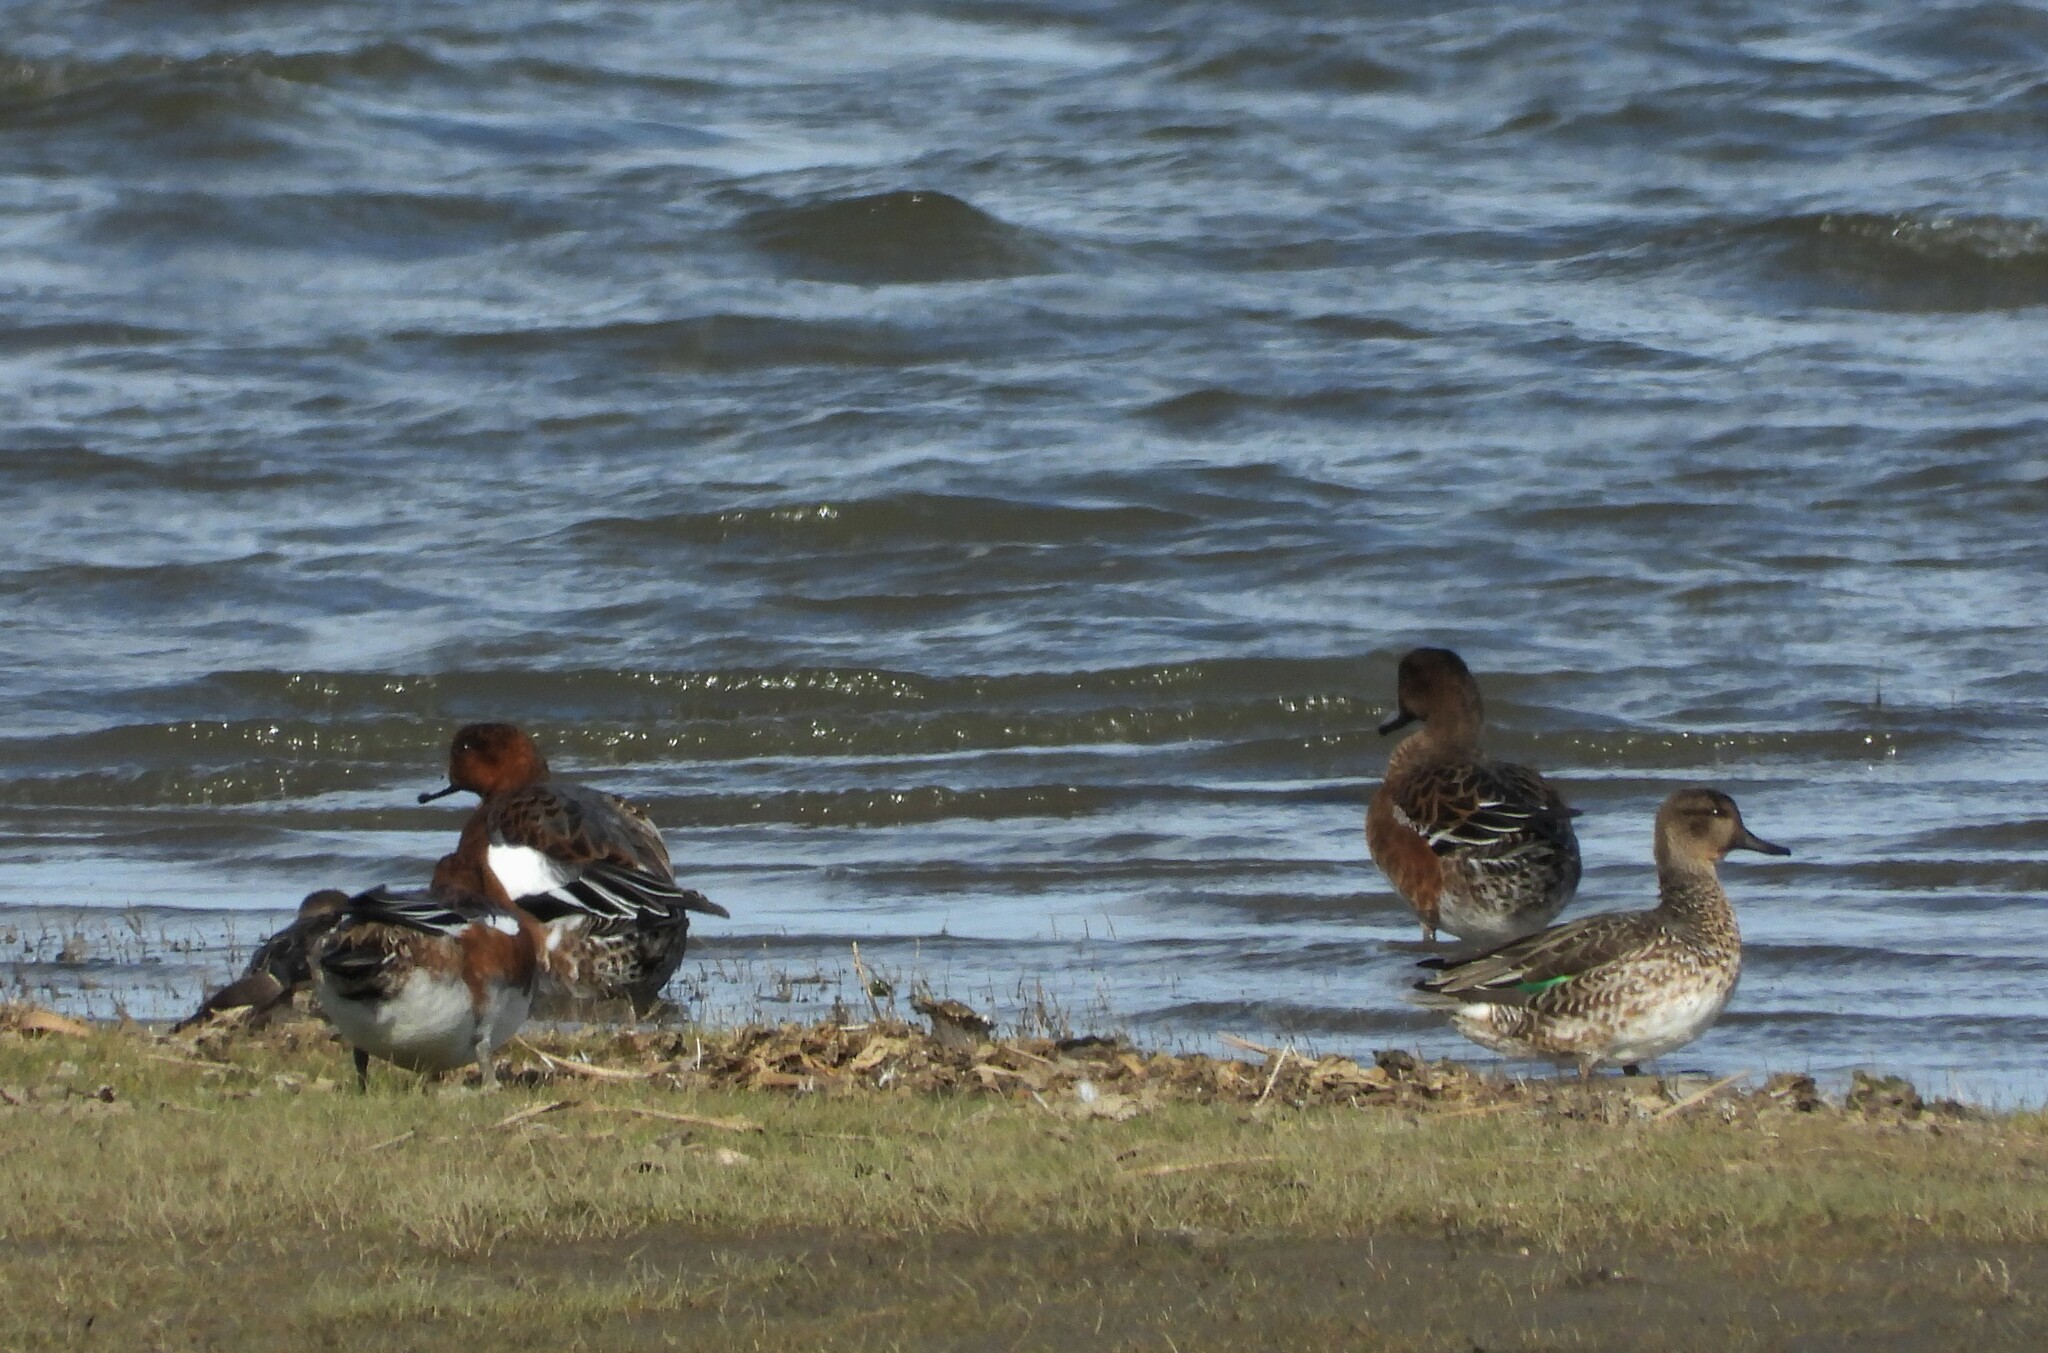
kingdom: Animalia
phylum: Chordata
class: Aves
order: Anseriformes
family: Anatidae
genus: Mareca
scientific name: Mareca penelope
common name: Eurasian wigeon
